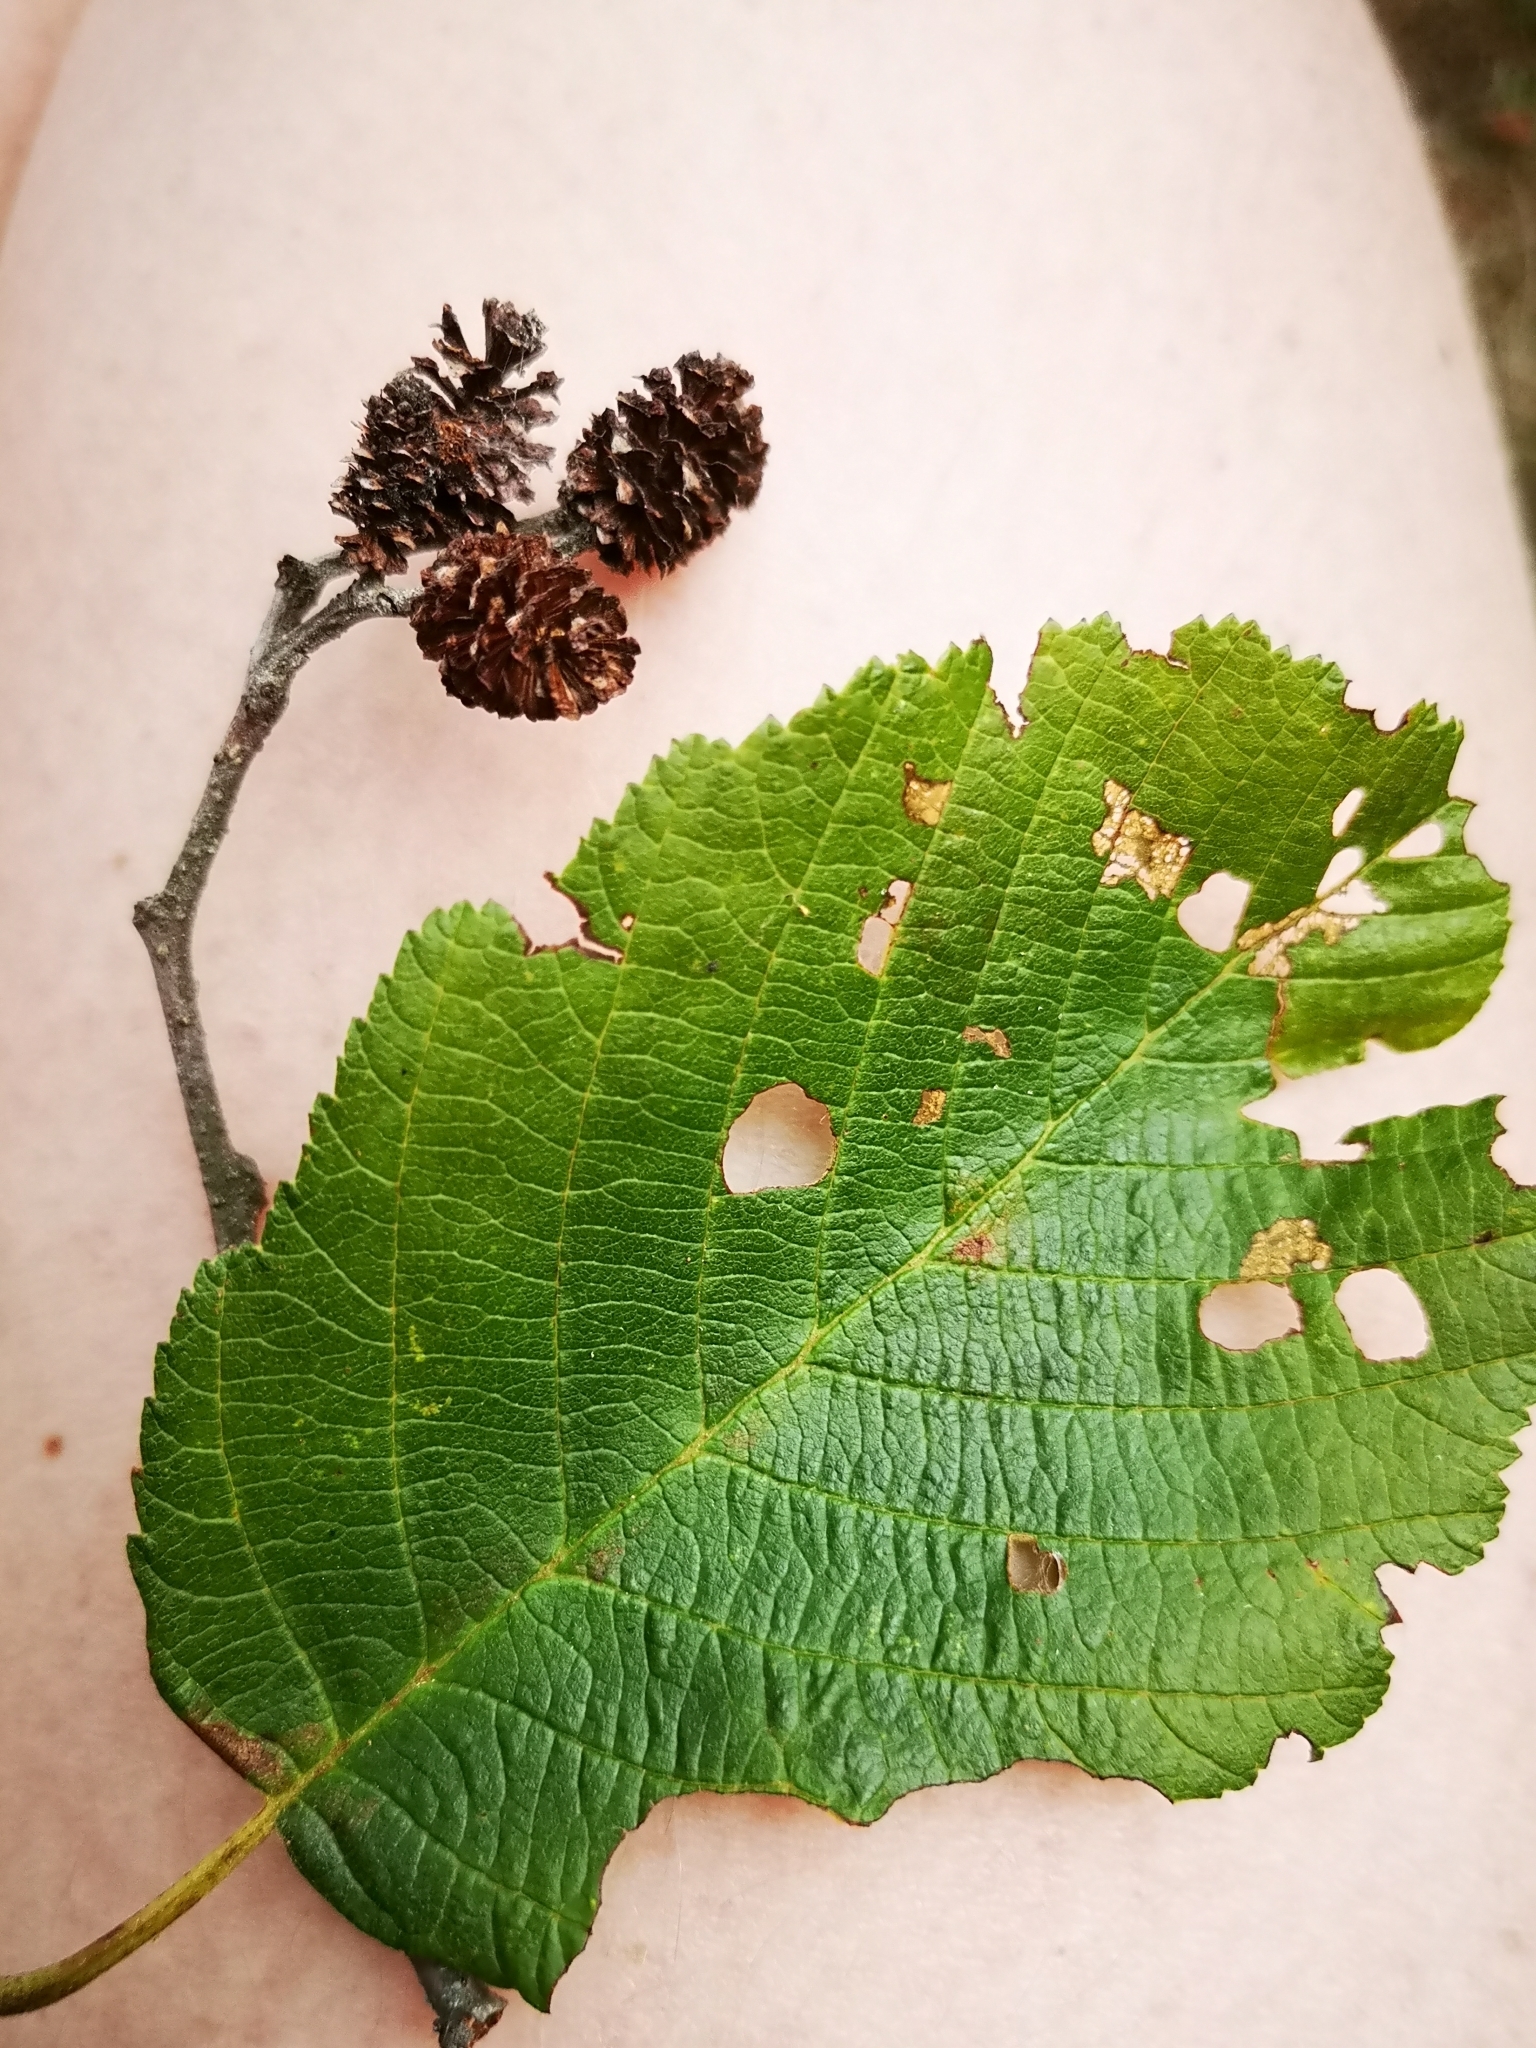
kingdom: Plantae
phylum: Tracheophyta
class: Magnoliopsida
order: Fagales
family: Betulaceae
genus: Alnus
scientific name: Alnus incana
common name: Grey alder
